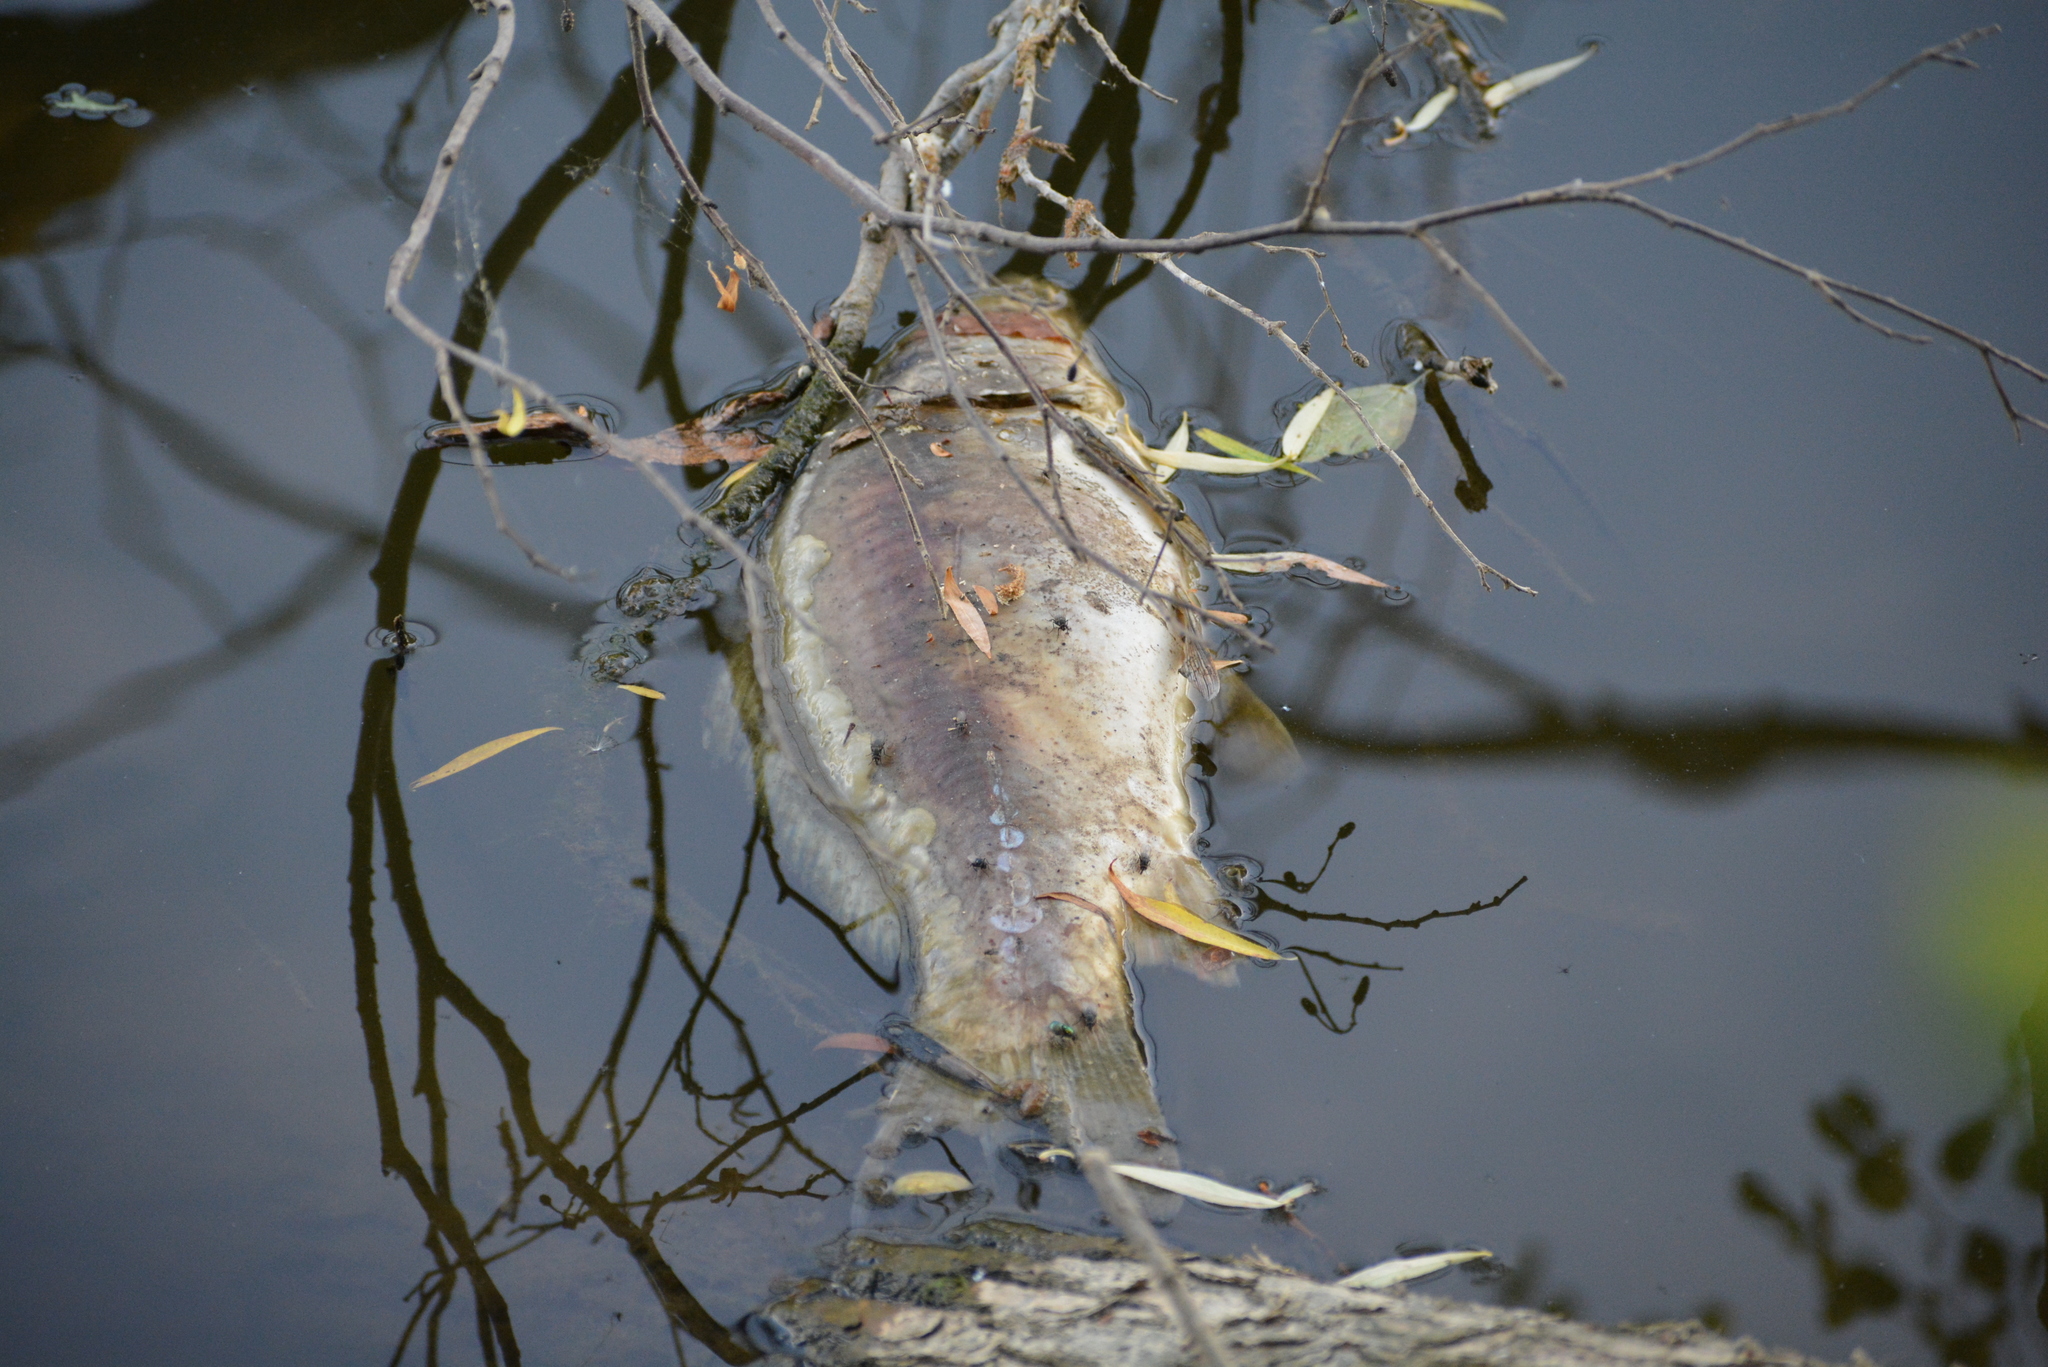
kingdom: Animalia
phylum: Chordata
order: Cypriniformes
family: Cyprinidae
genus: Cyprinus
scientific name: Cyprinus carpio
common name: Common carp
